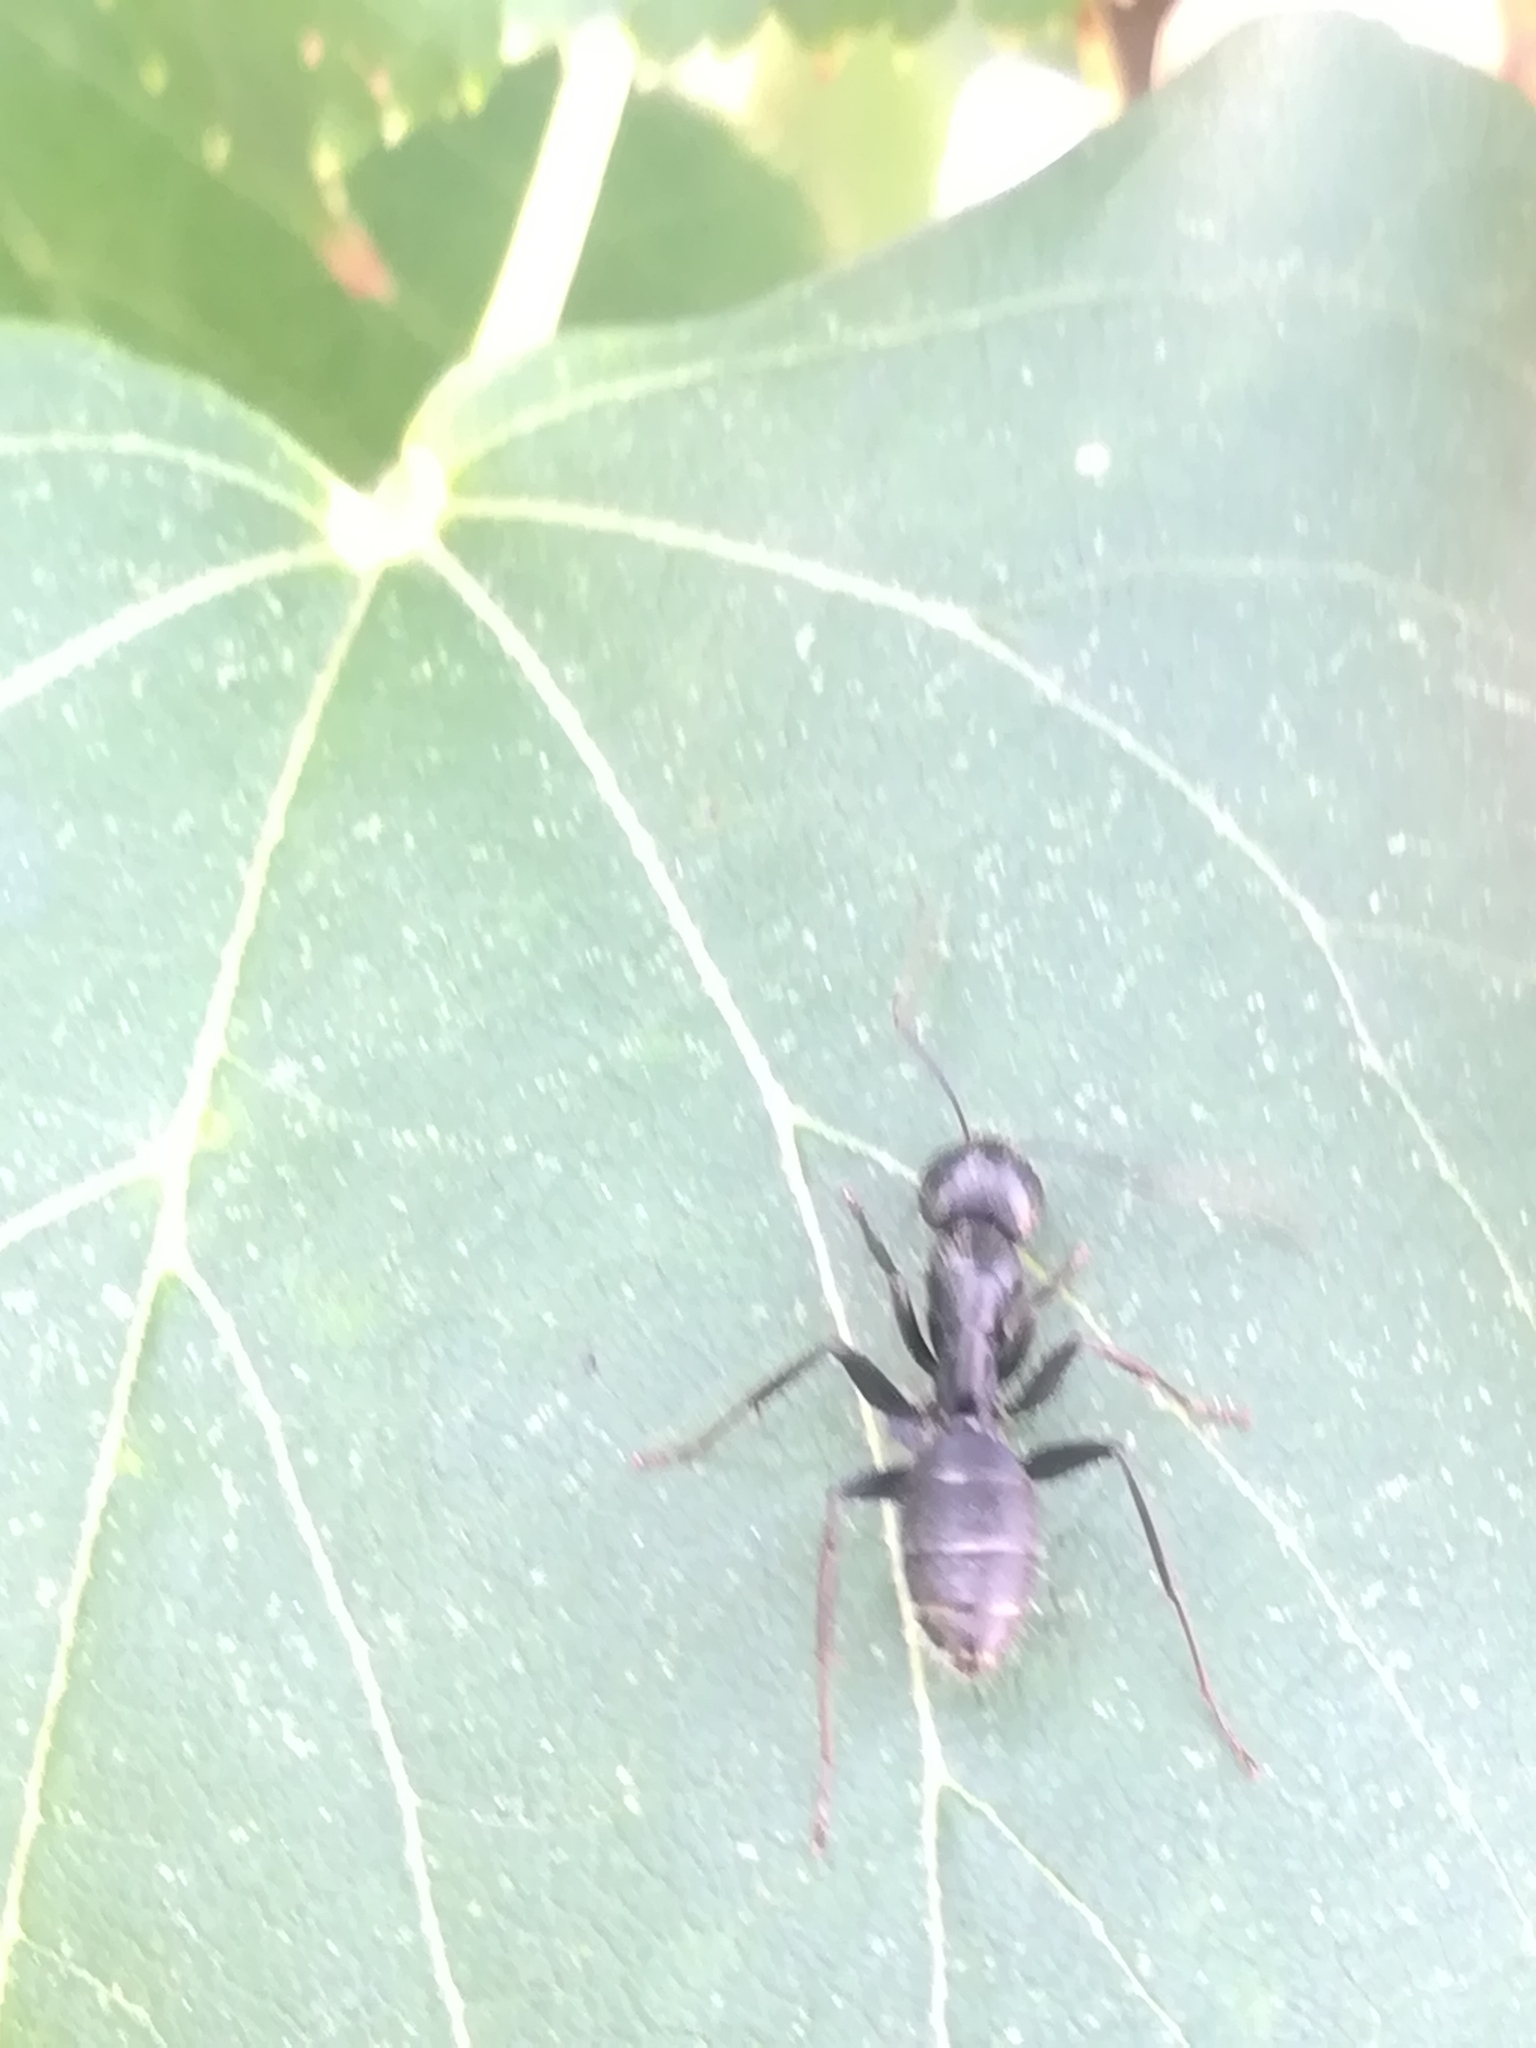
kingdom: Animalia
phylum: Arthropoda
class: Insecta
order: Hymenoptera
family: Formicidae
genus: Camponotus
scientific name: Camponotus vagus
